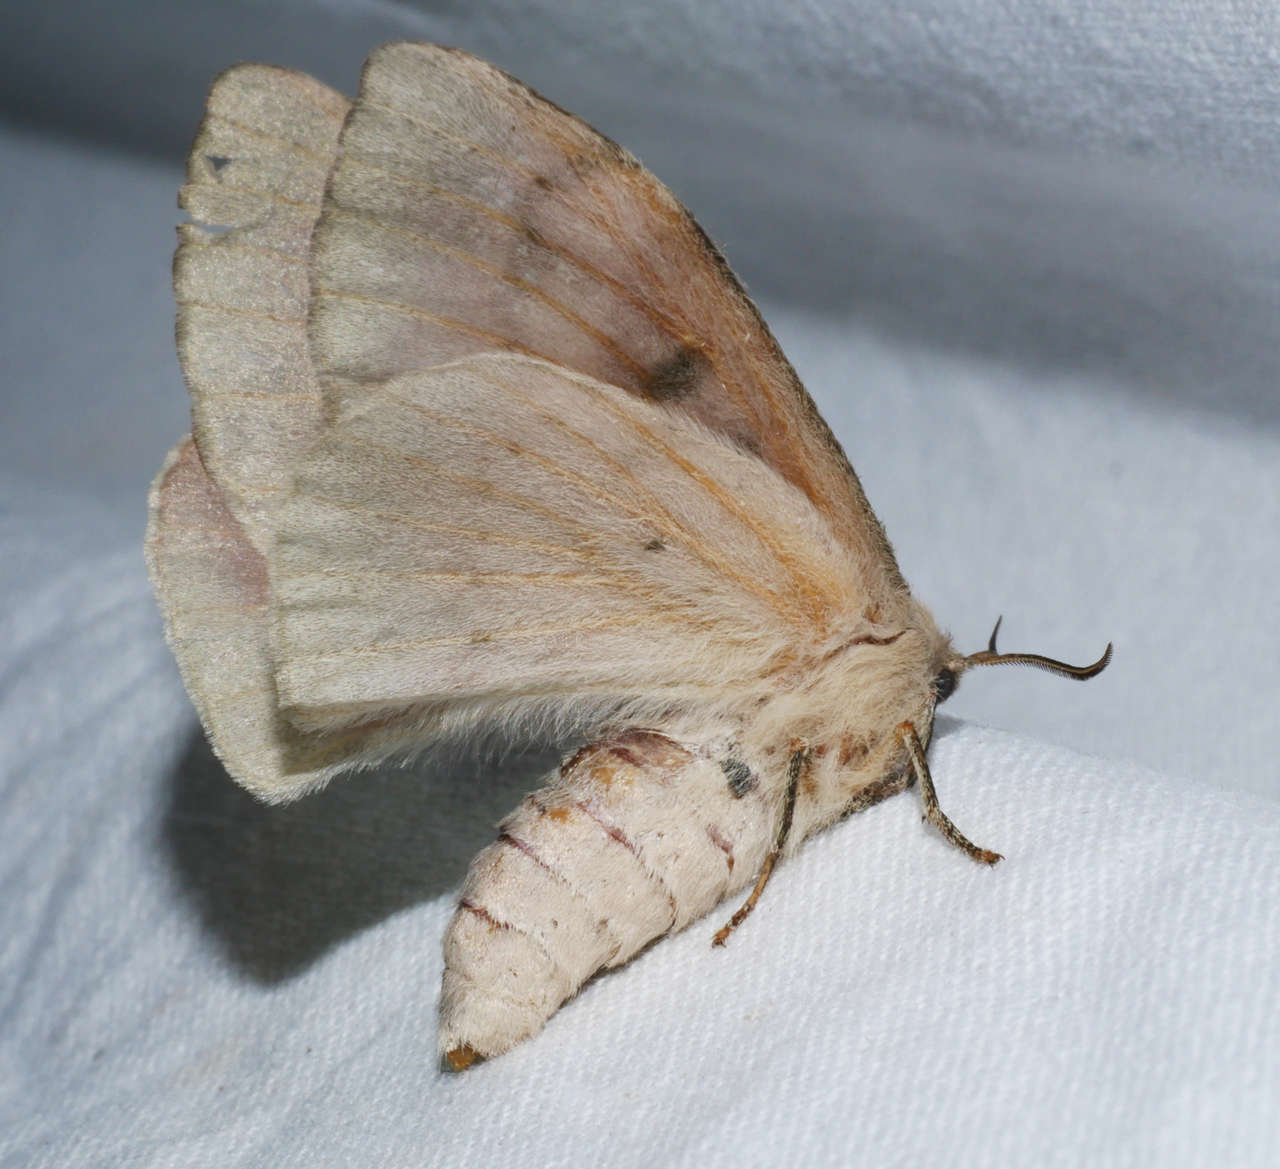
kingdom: Animalia
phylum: Arthropoda
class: Insecta
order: Lepidoptera
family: Anthelidae
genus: Chenuala
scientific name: Chenuala heliaspis
